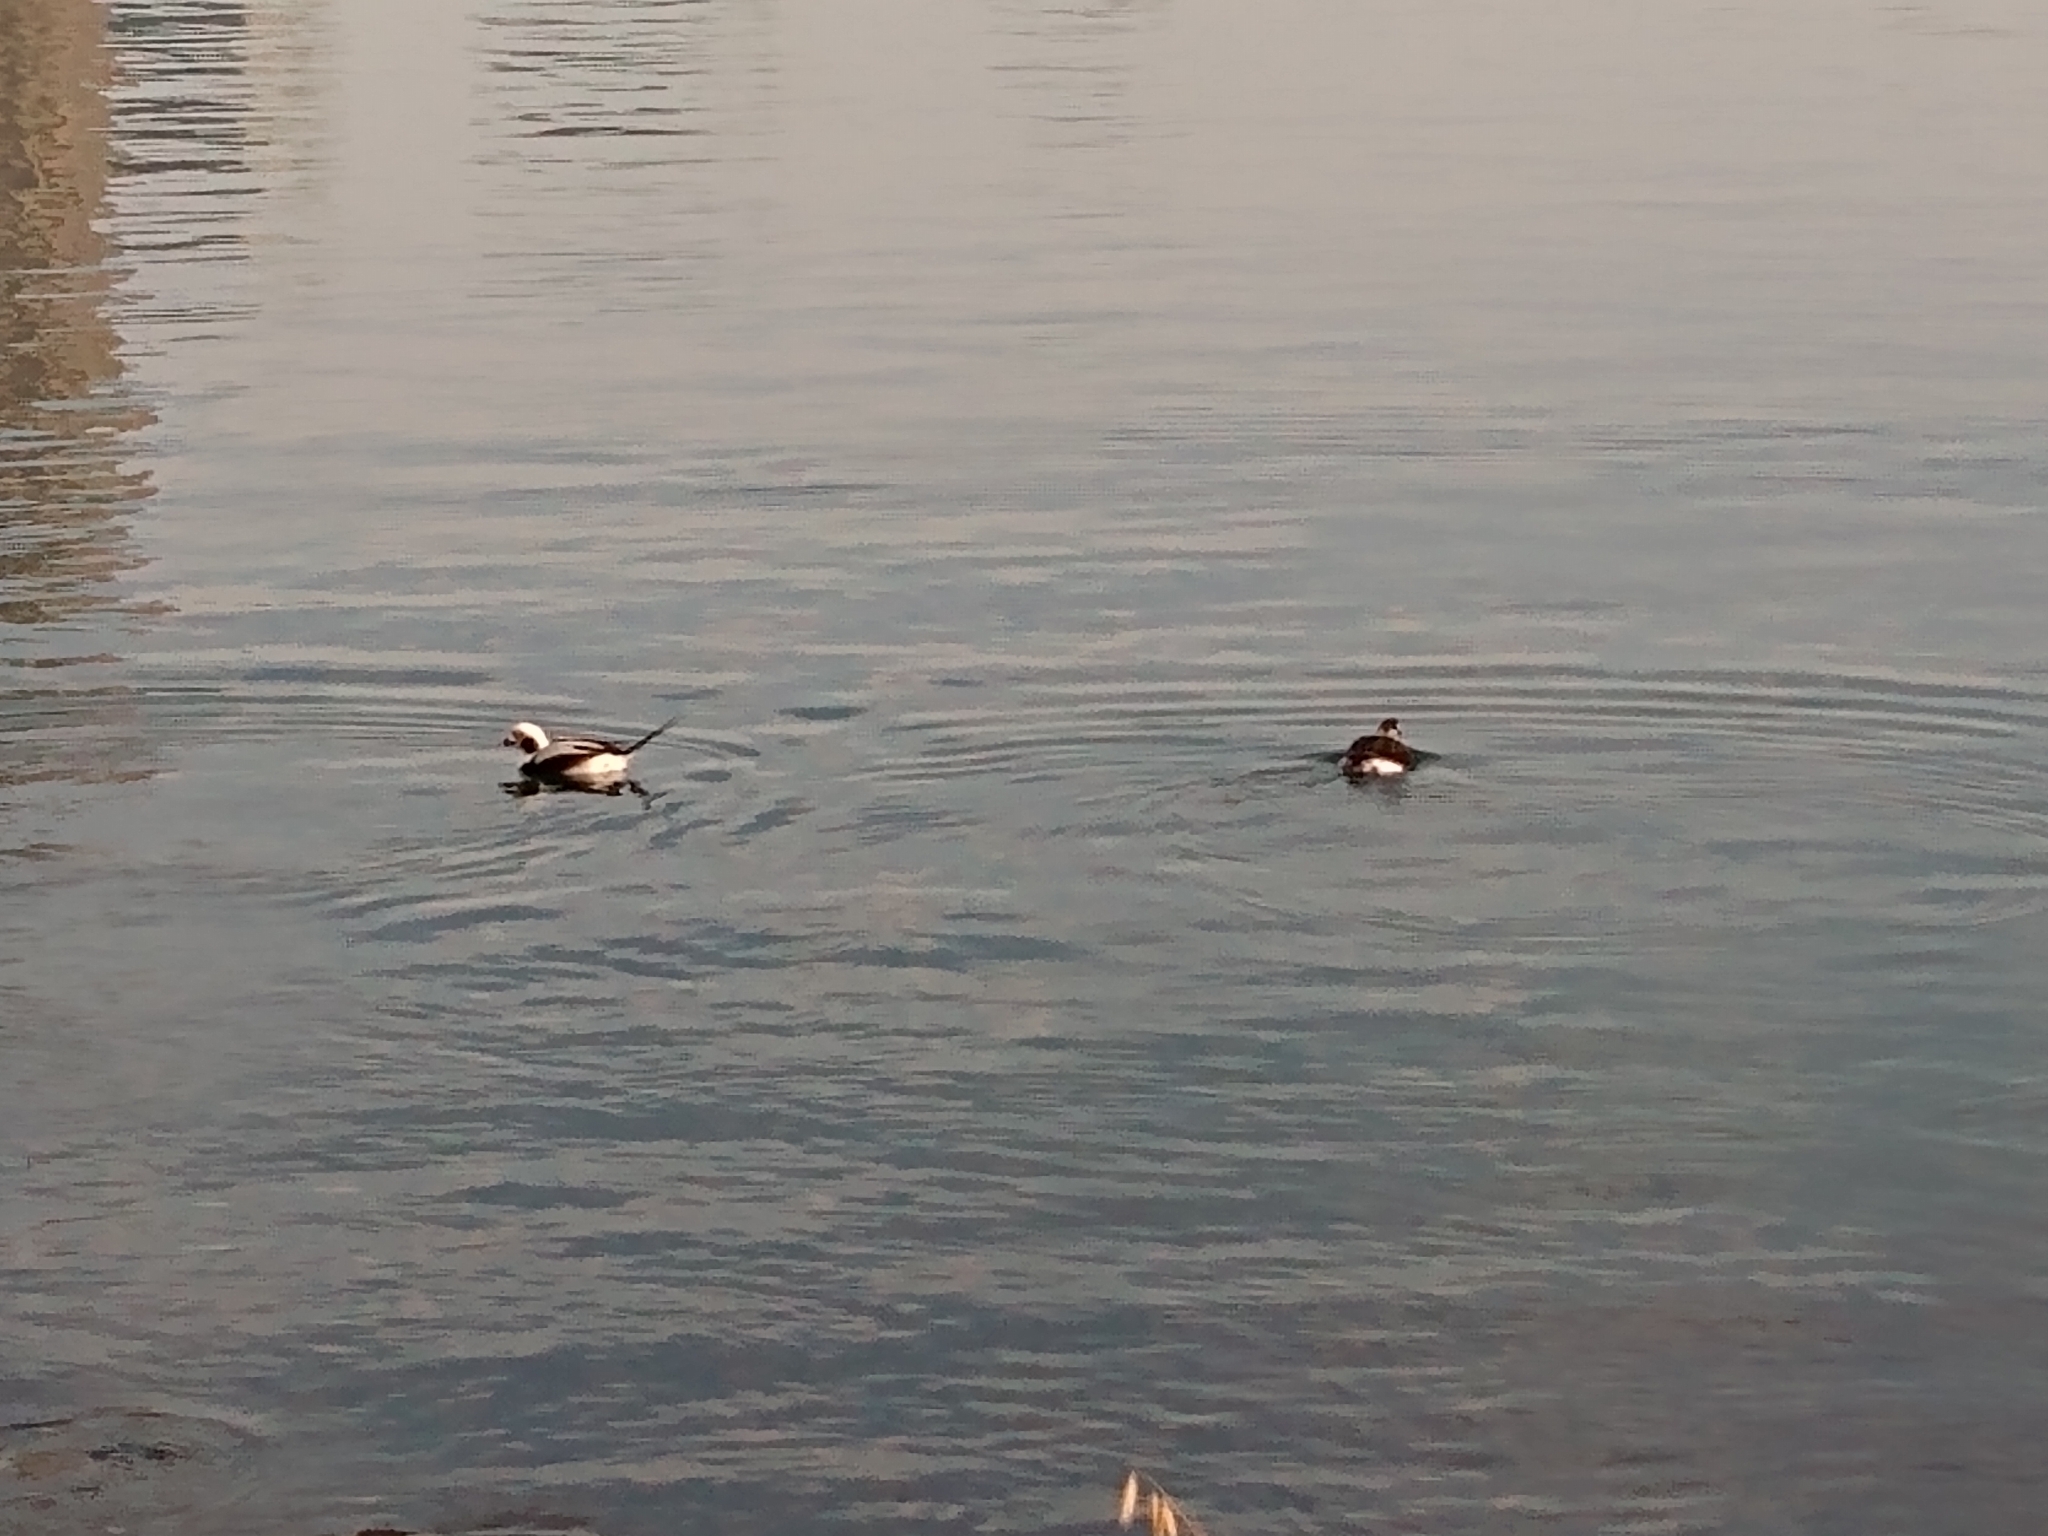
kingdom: Animalia
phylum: Chordata
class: Aves
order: Anseriformes
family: Anatidae
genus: Clangula
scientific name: Clangula hyemalis
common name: Long-tailed duck
